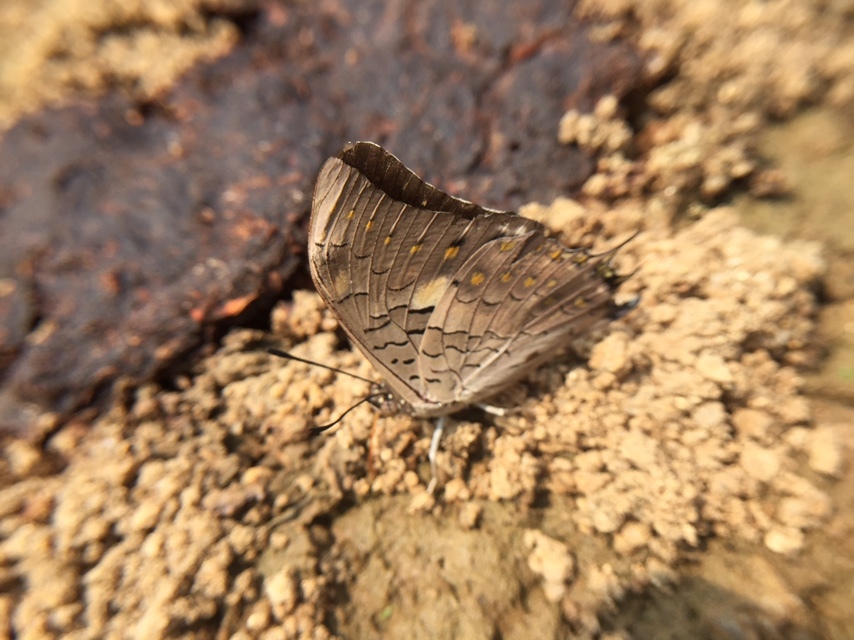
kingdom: Animalia
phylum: Arthropoda
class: Insecta
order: Lepidoptera
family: Nymphalidae
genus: Charaxes
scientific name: Charaxes solon
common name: Black rajah
